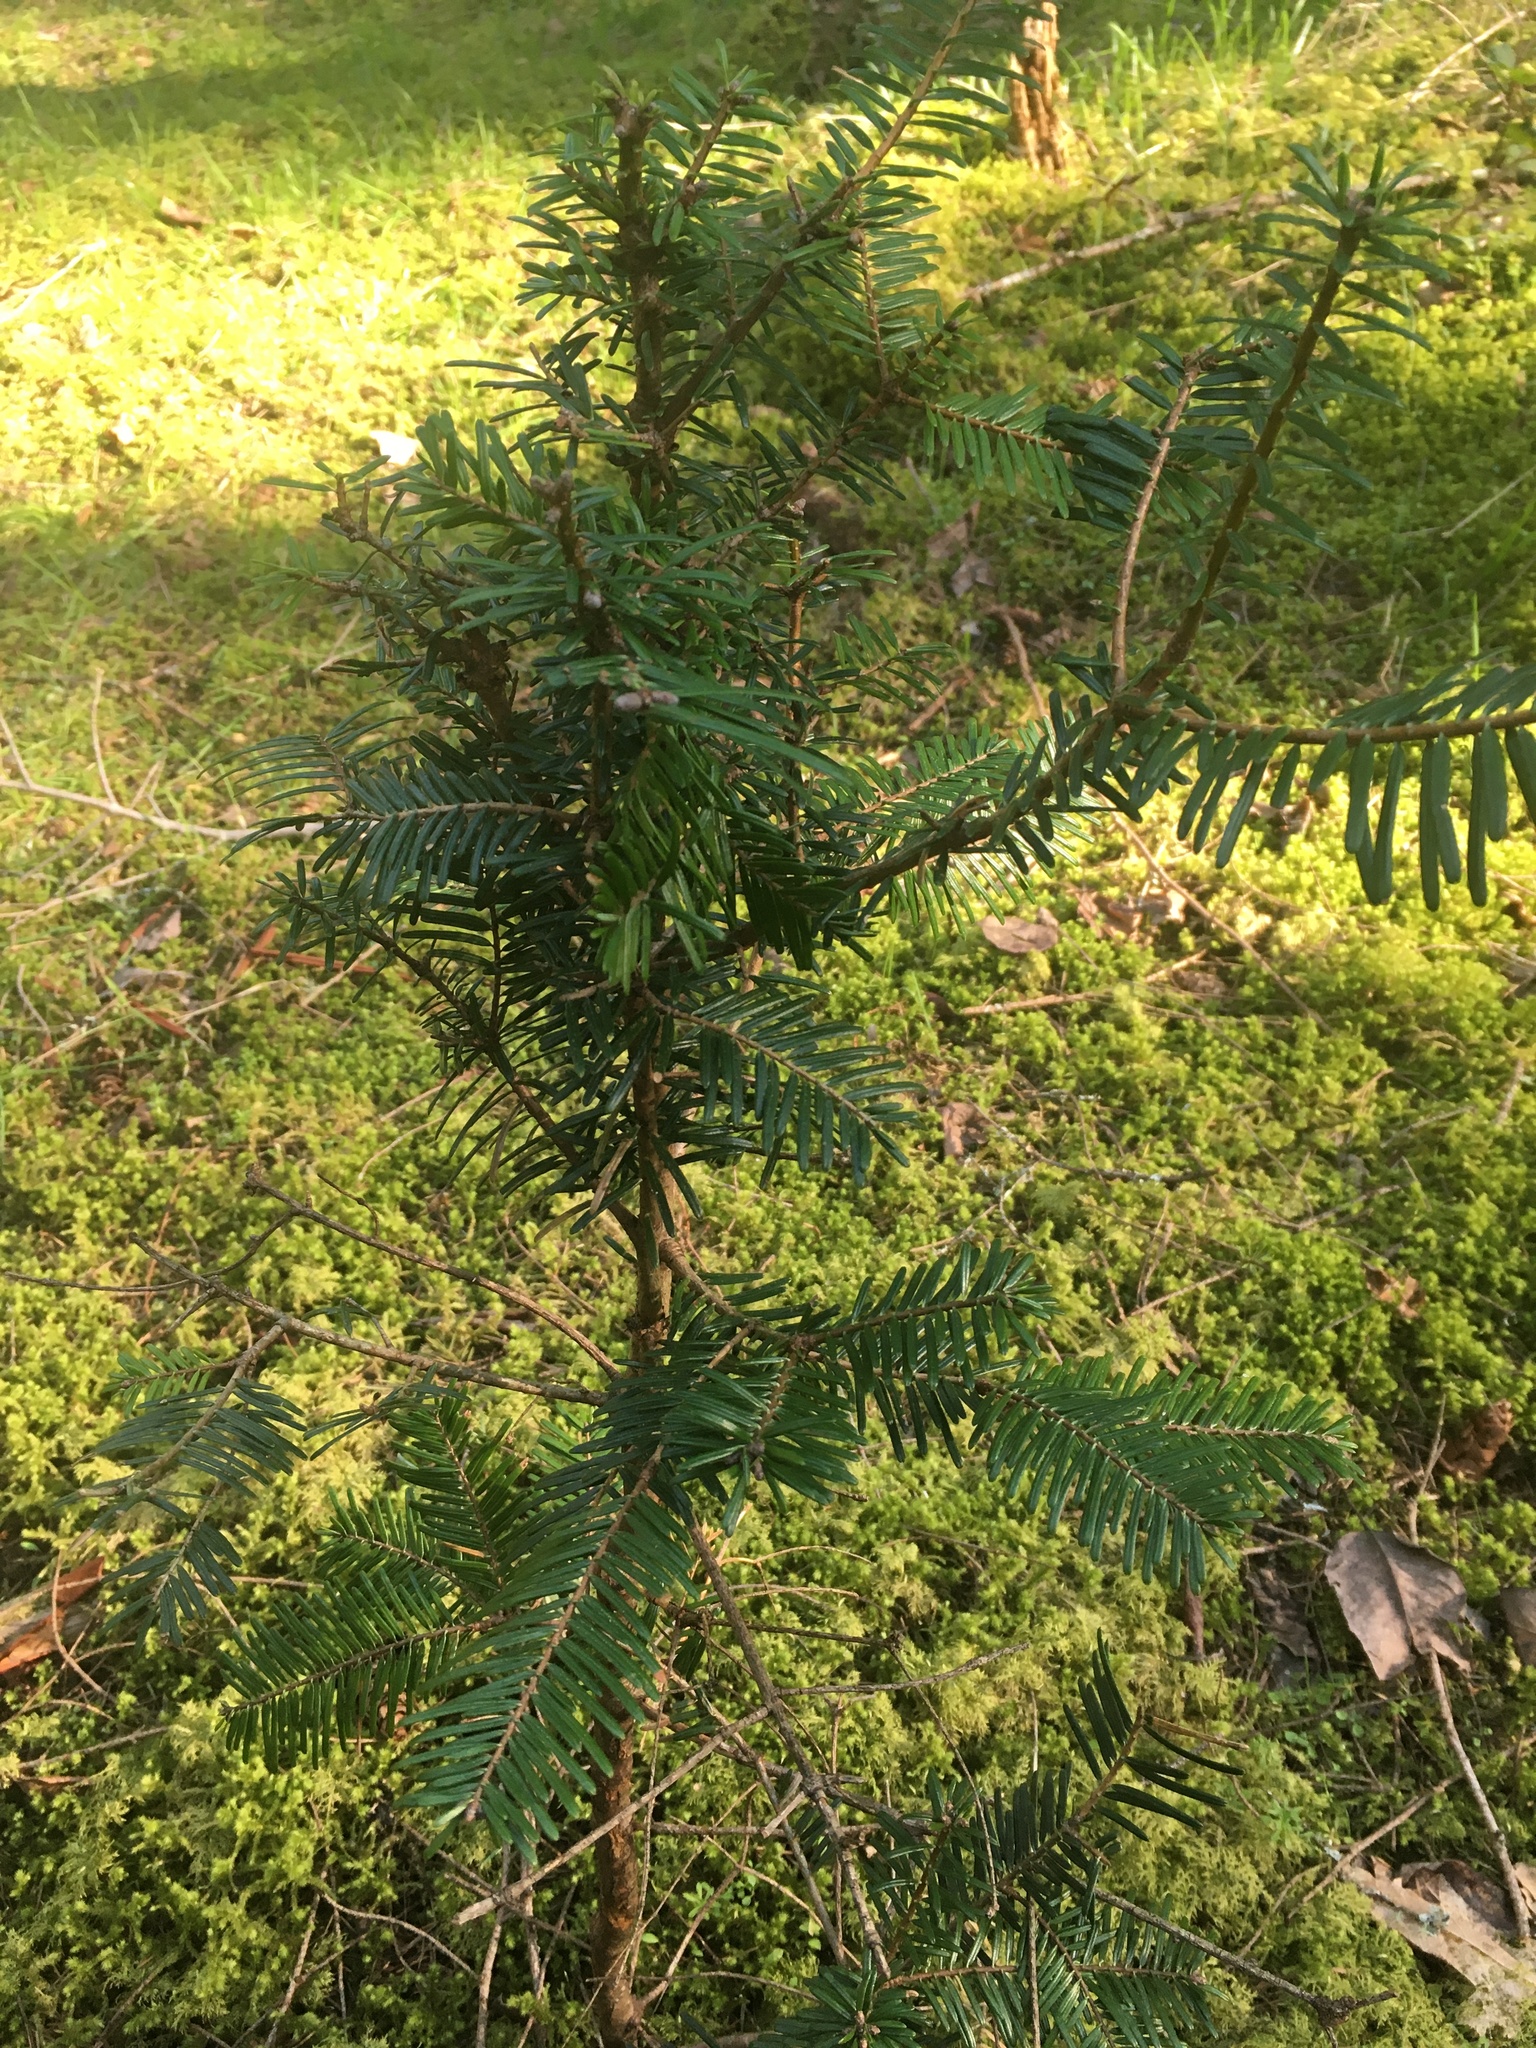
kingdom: Plantae
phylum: Tracheophyta
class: Pinopsida
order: Pinales
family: Pinaceae
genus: Abies
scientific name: Abies grandis
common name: Giant fir
